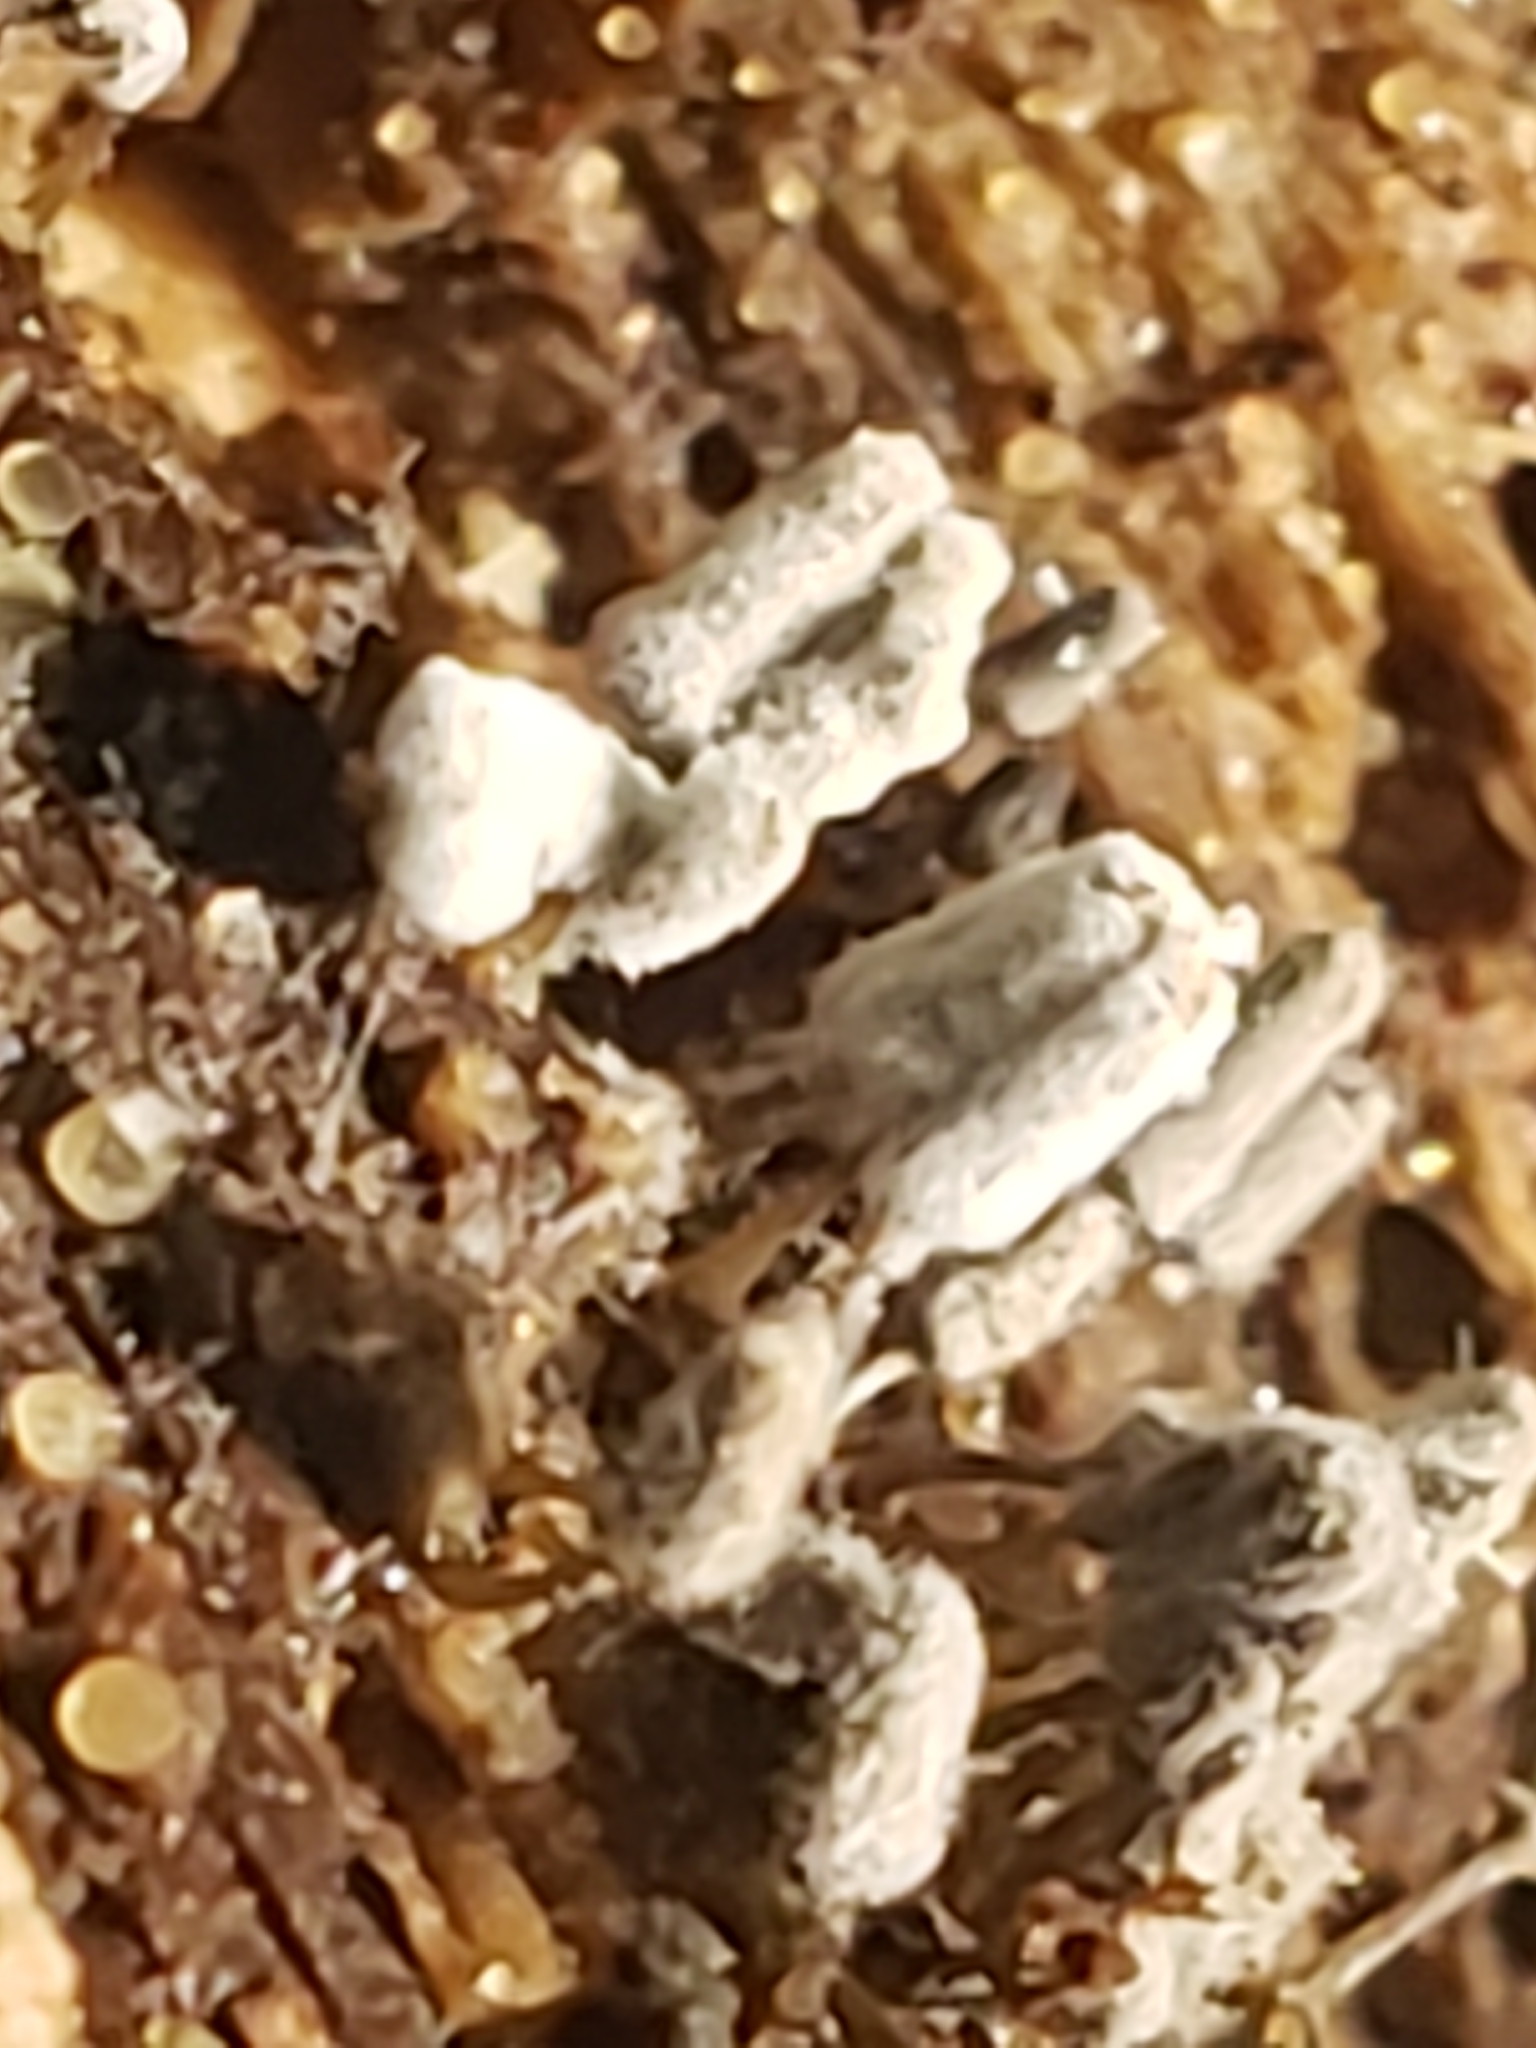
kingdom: Protozoa
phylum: Mycetozoa
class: Myxomycetes
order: Trichiales
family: Arcyriaceae
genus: Arcyria
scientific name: Arcyria cinerea
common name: White carnival candy slime mold
